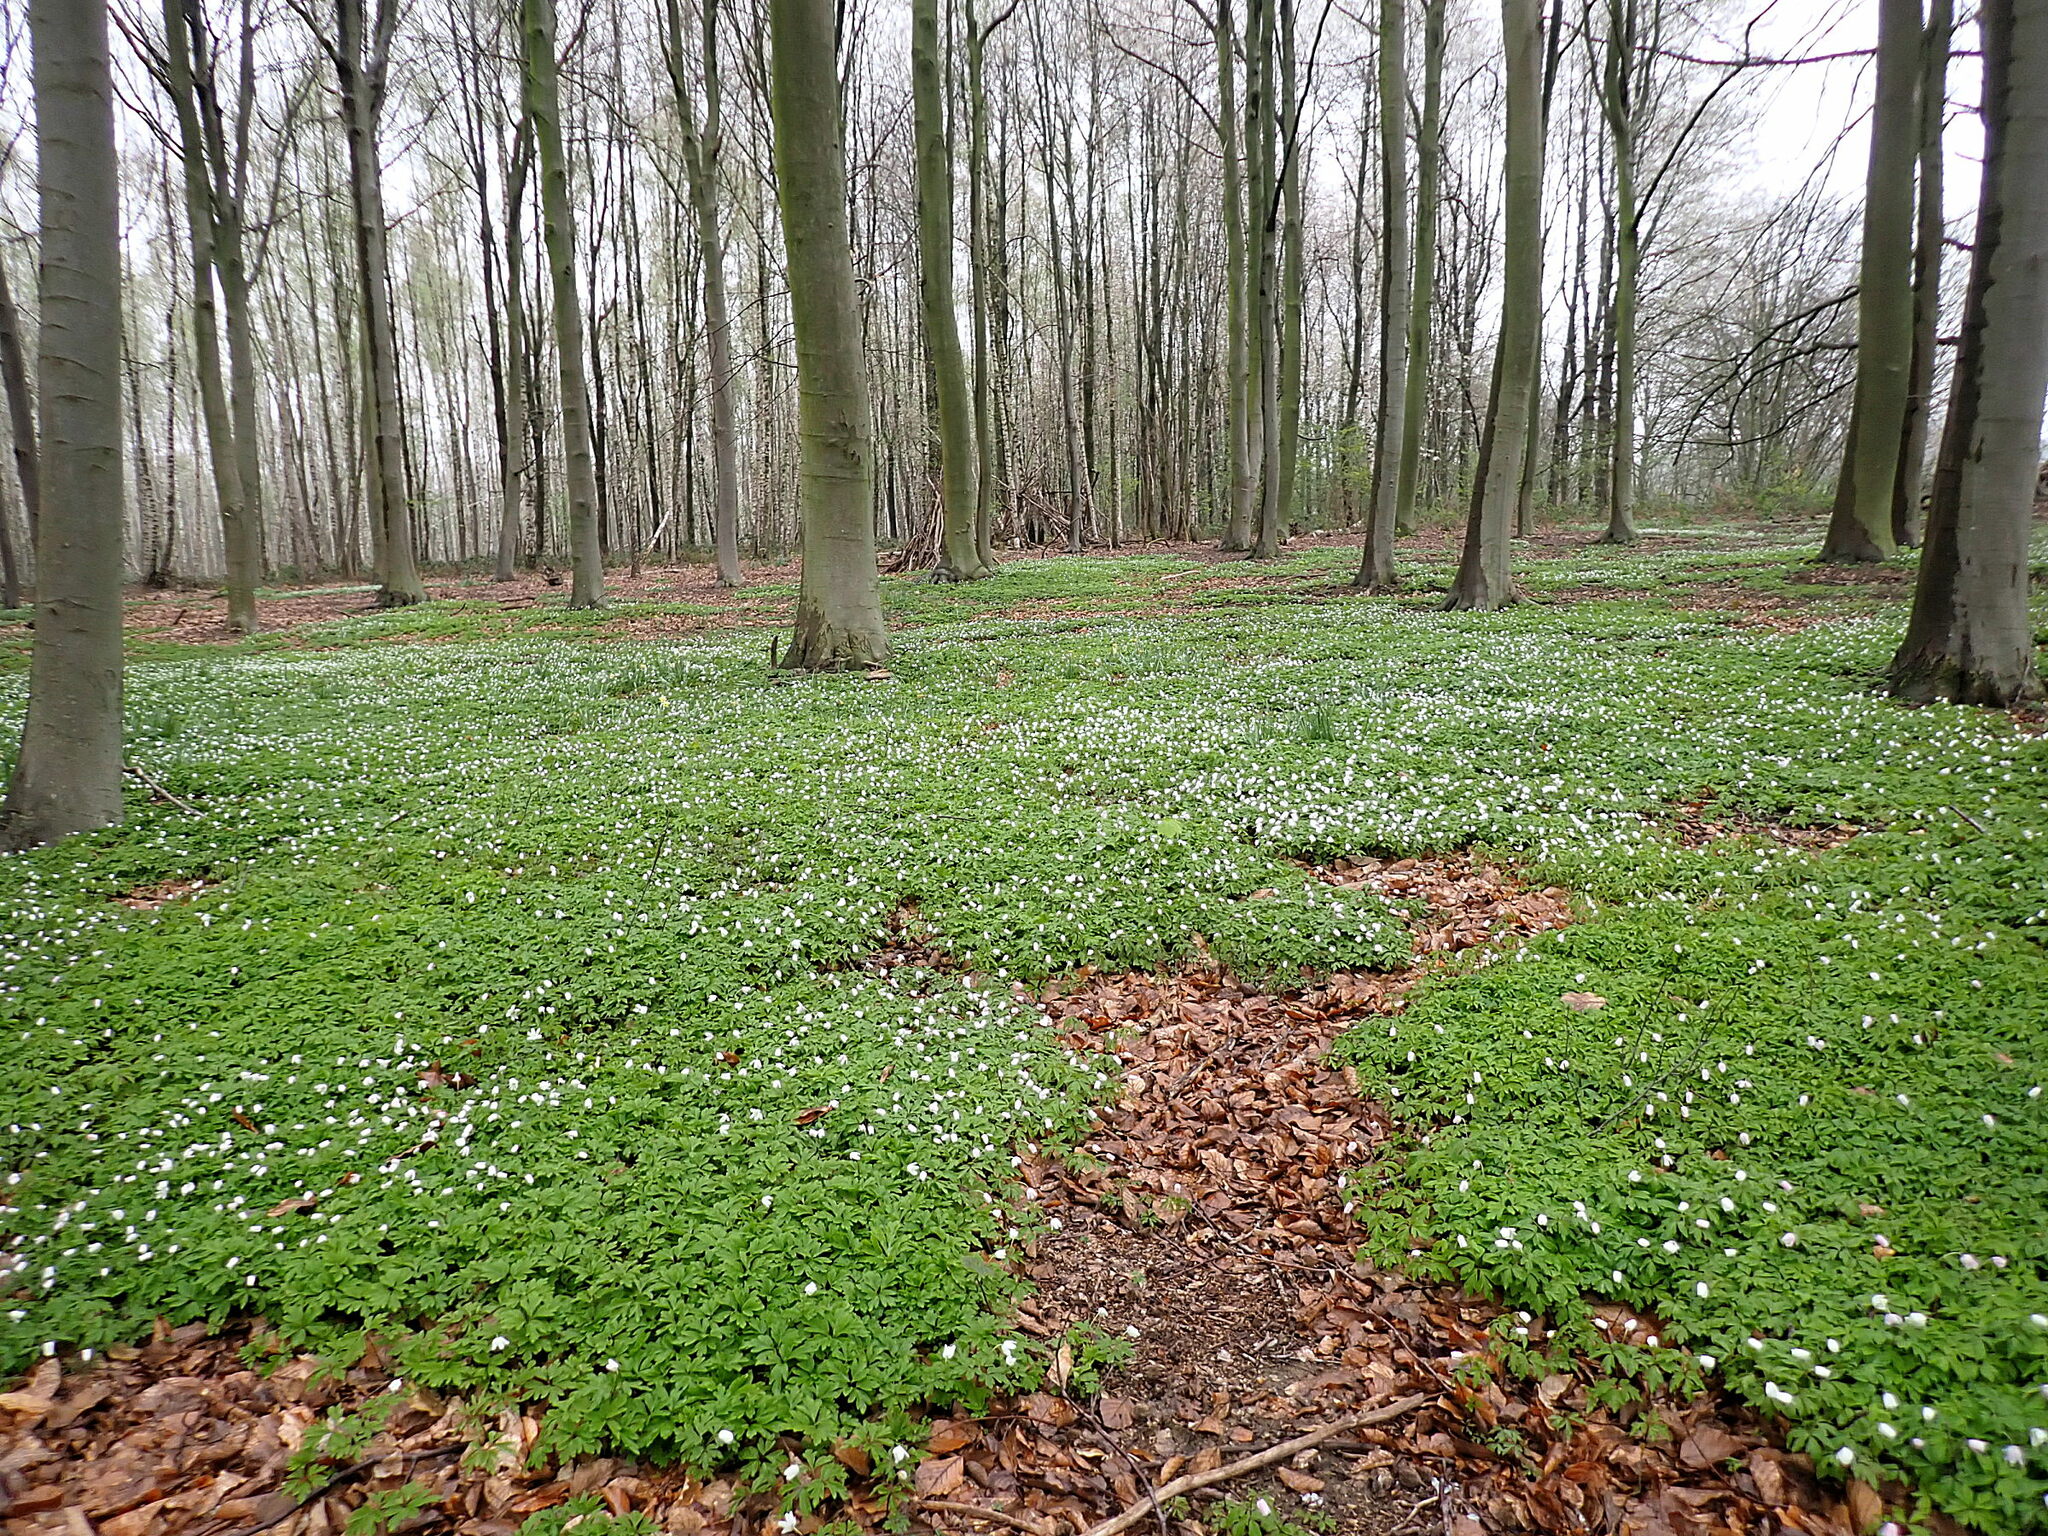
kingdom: Plantae
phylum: Tracheophyta
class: Magnoliopsida
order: Ranunculales
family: Ranunculaceae
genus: Anemone
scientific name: Anemone nemorosa
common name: Wood anemone
